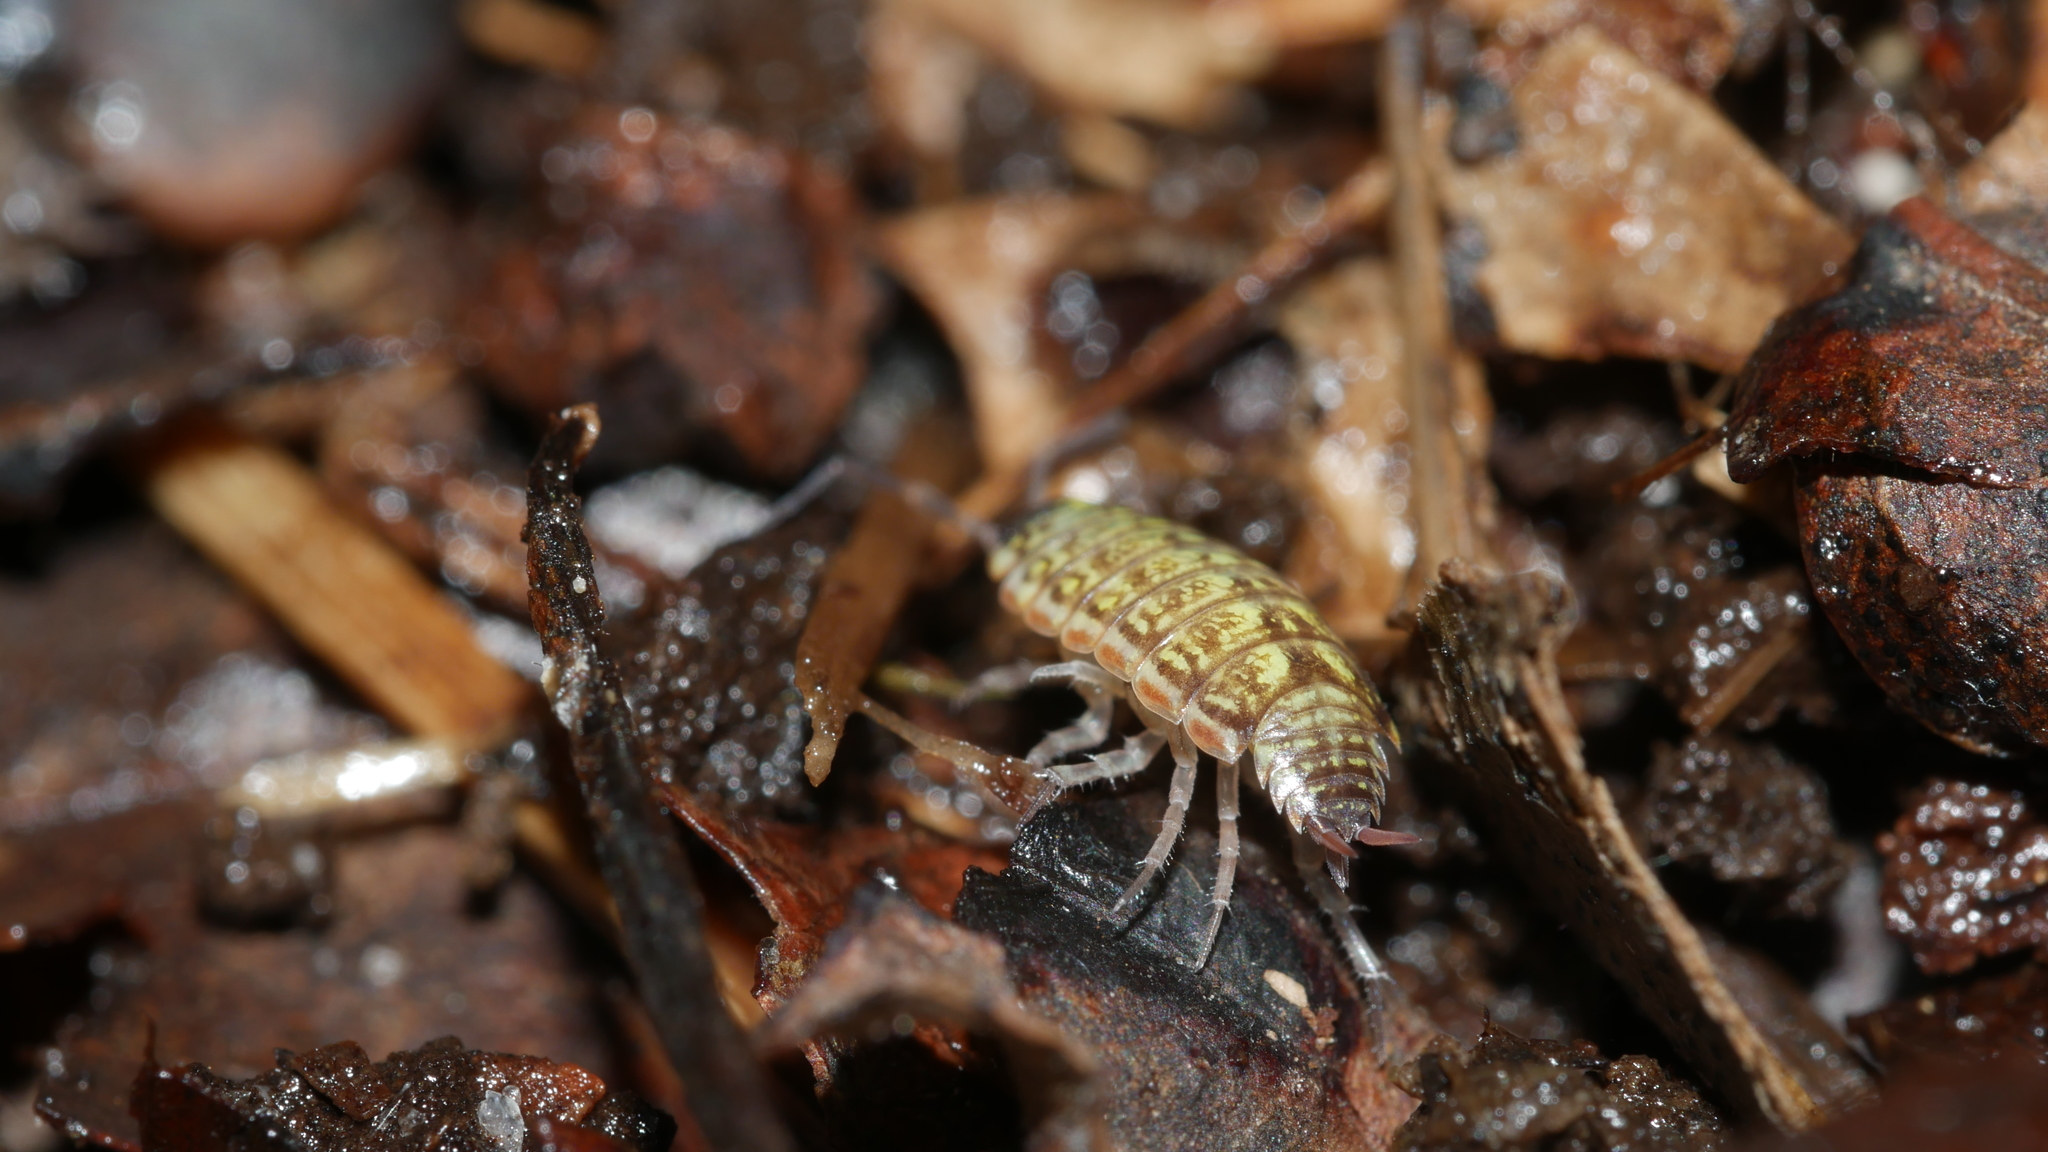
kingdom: Animalia
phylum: Arthropoda
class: Malacostraca
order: Isopoda
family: Philosciidae
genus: Philoscia
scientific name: Philoscia muscorum
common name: Common striped woodlouse
